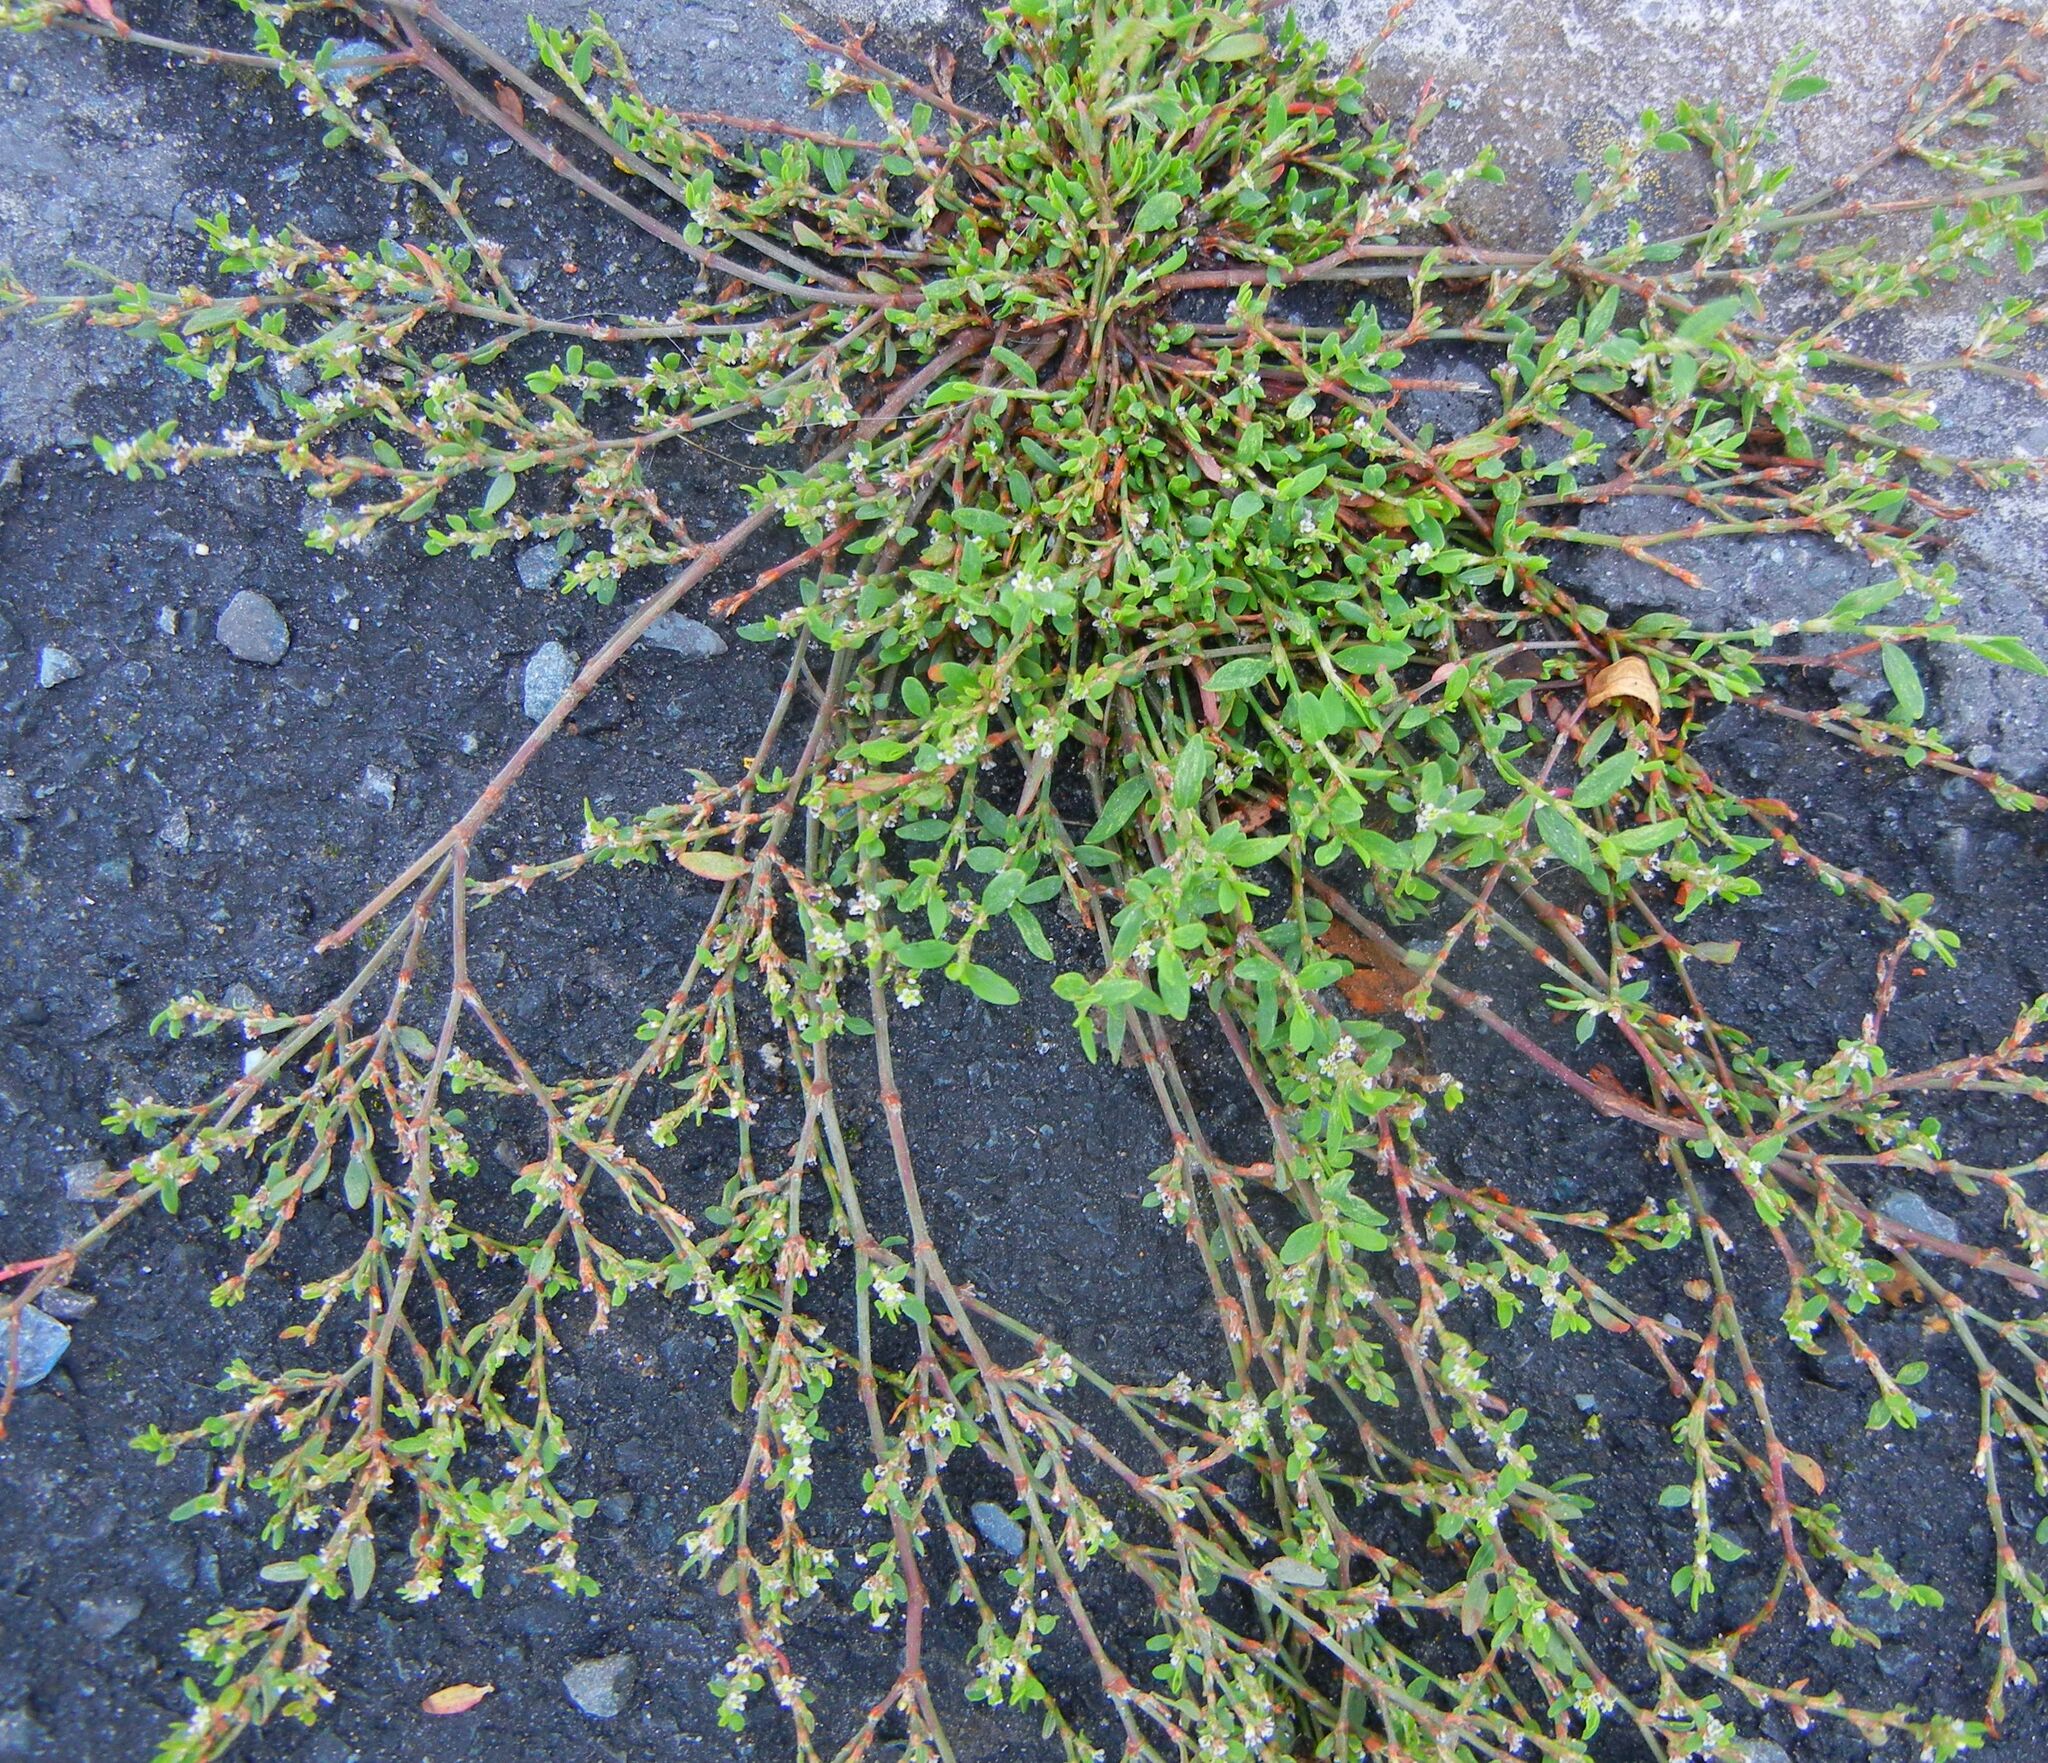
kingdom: Plantae
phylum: Tracheophyta
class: Magnoliopsida
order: Caryophyllales
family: Polygonaceae
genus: Polygonum
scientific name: Polygonum aviculare
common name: Prostrate knotweed
